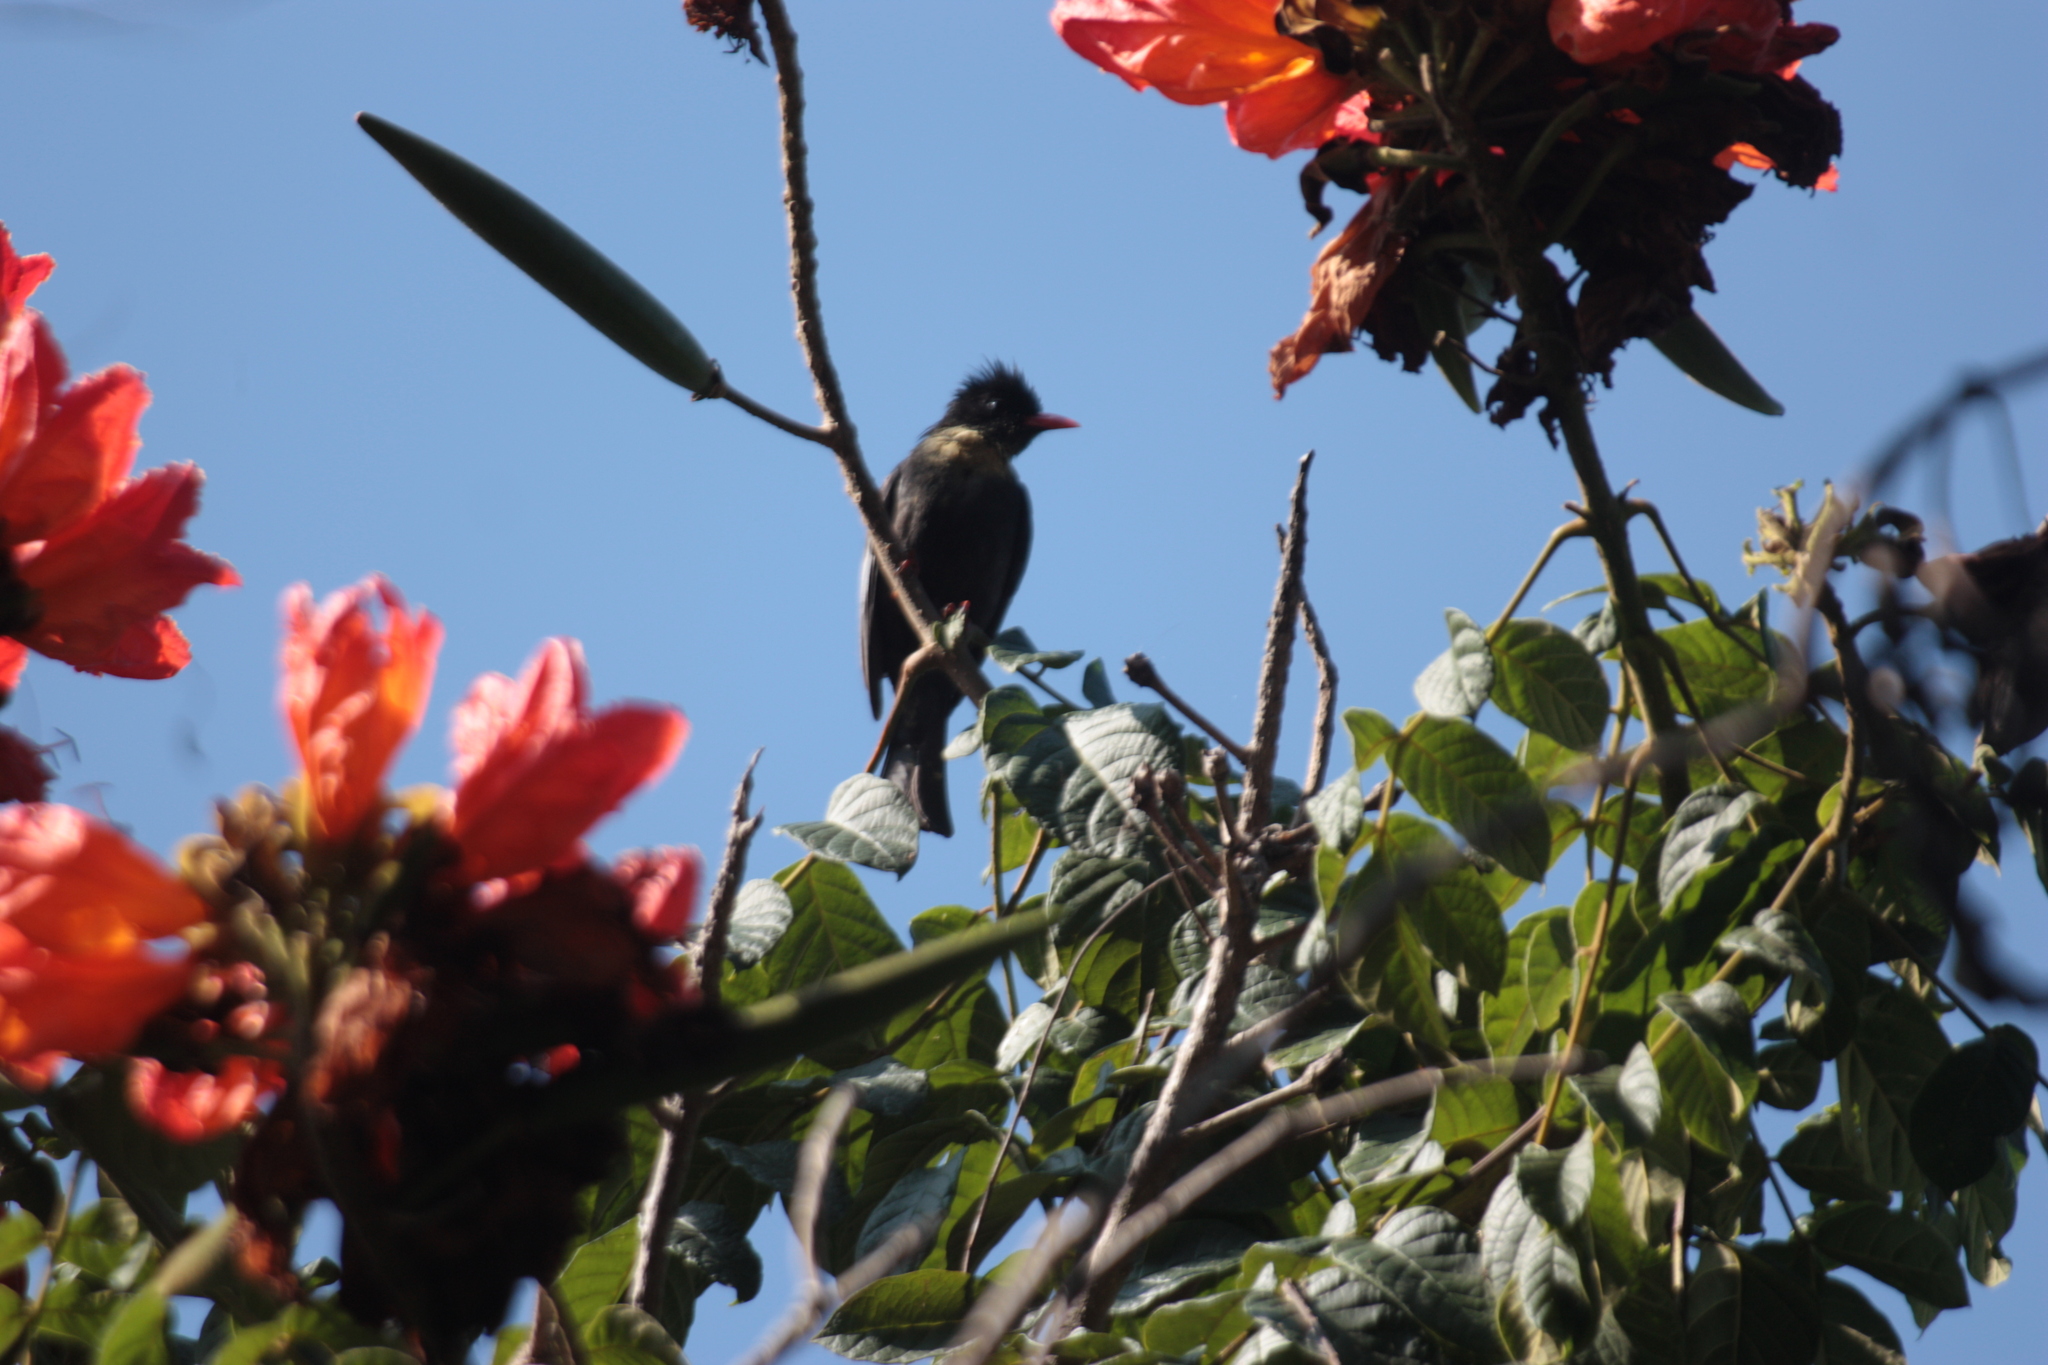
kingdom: Animalia
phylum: Chordata
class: Aves
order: Passeriformes
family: Pycnonotidae
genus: Hypsipetes
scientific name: Hypsipetes leucocephalus
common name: Black bulbul
